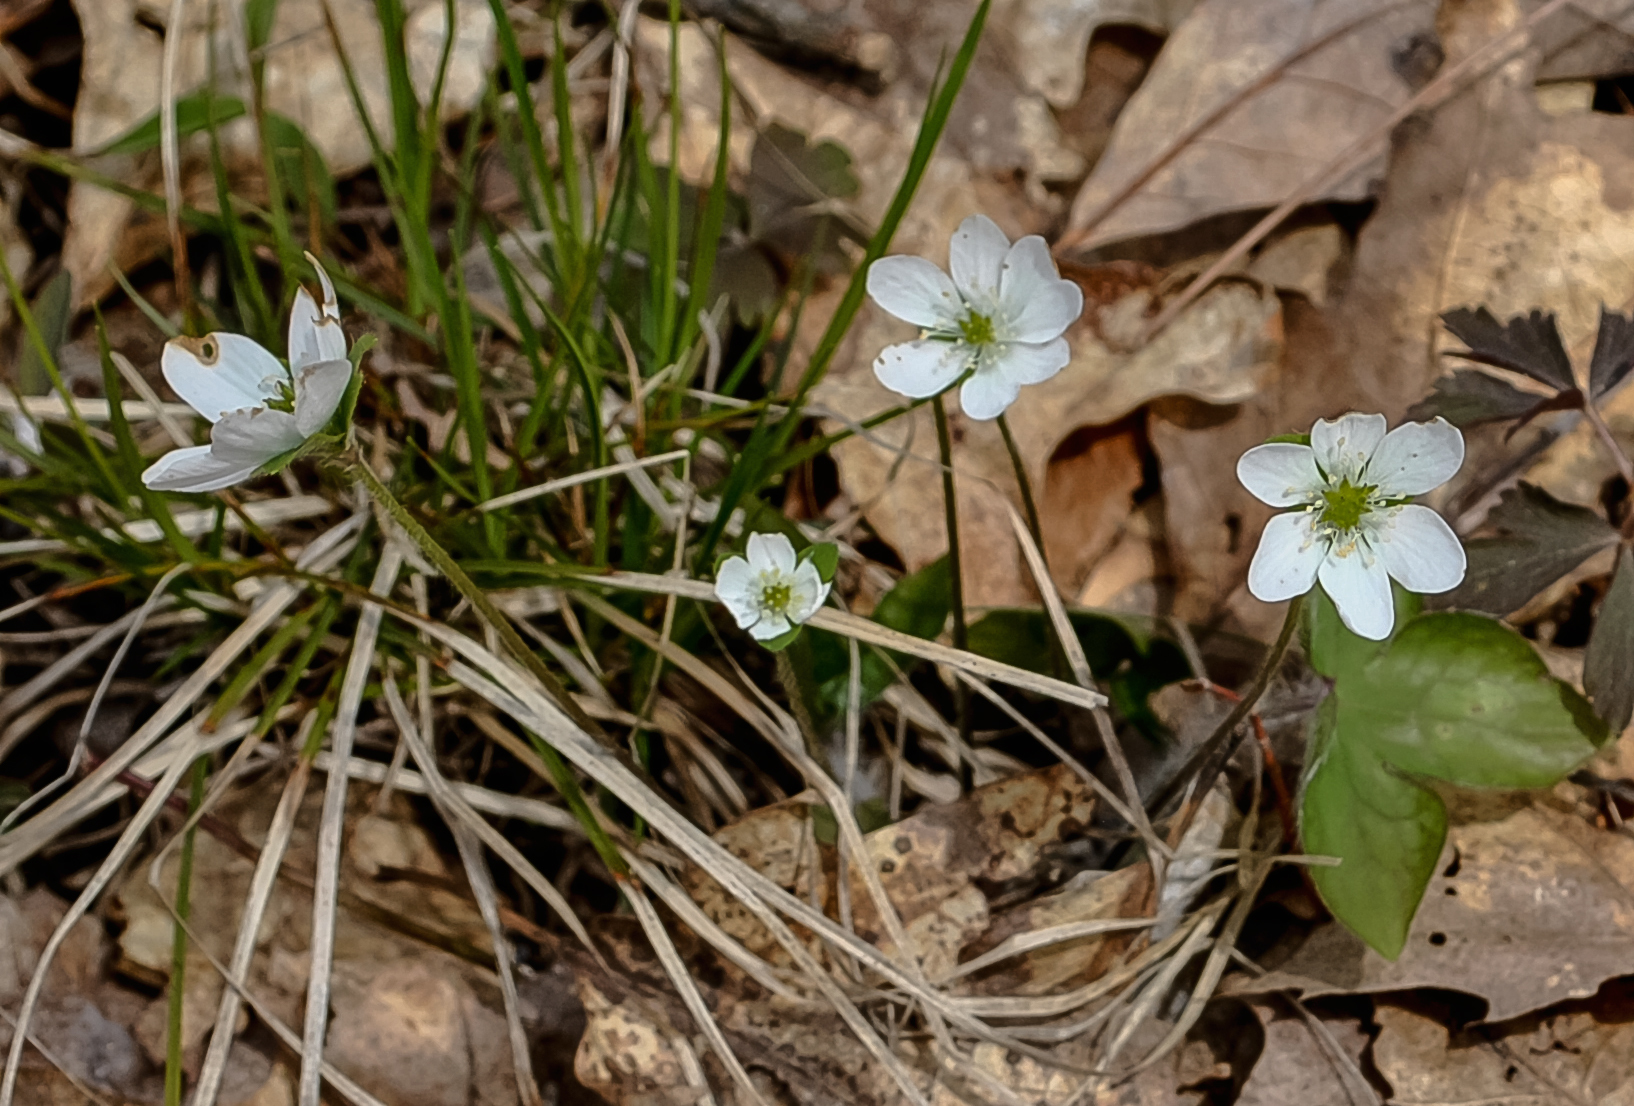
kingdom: Plantae
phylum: Tracheophyta
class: Magnoliopsida
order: Ranunculales
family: Ranunculaceae
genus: Hepatica
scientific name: Hepatica acutiloba
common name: Sharp-lobed hepatica
